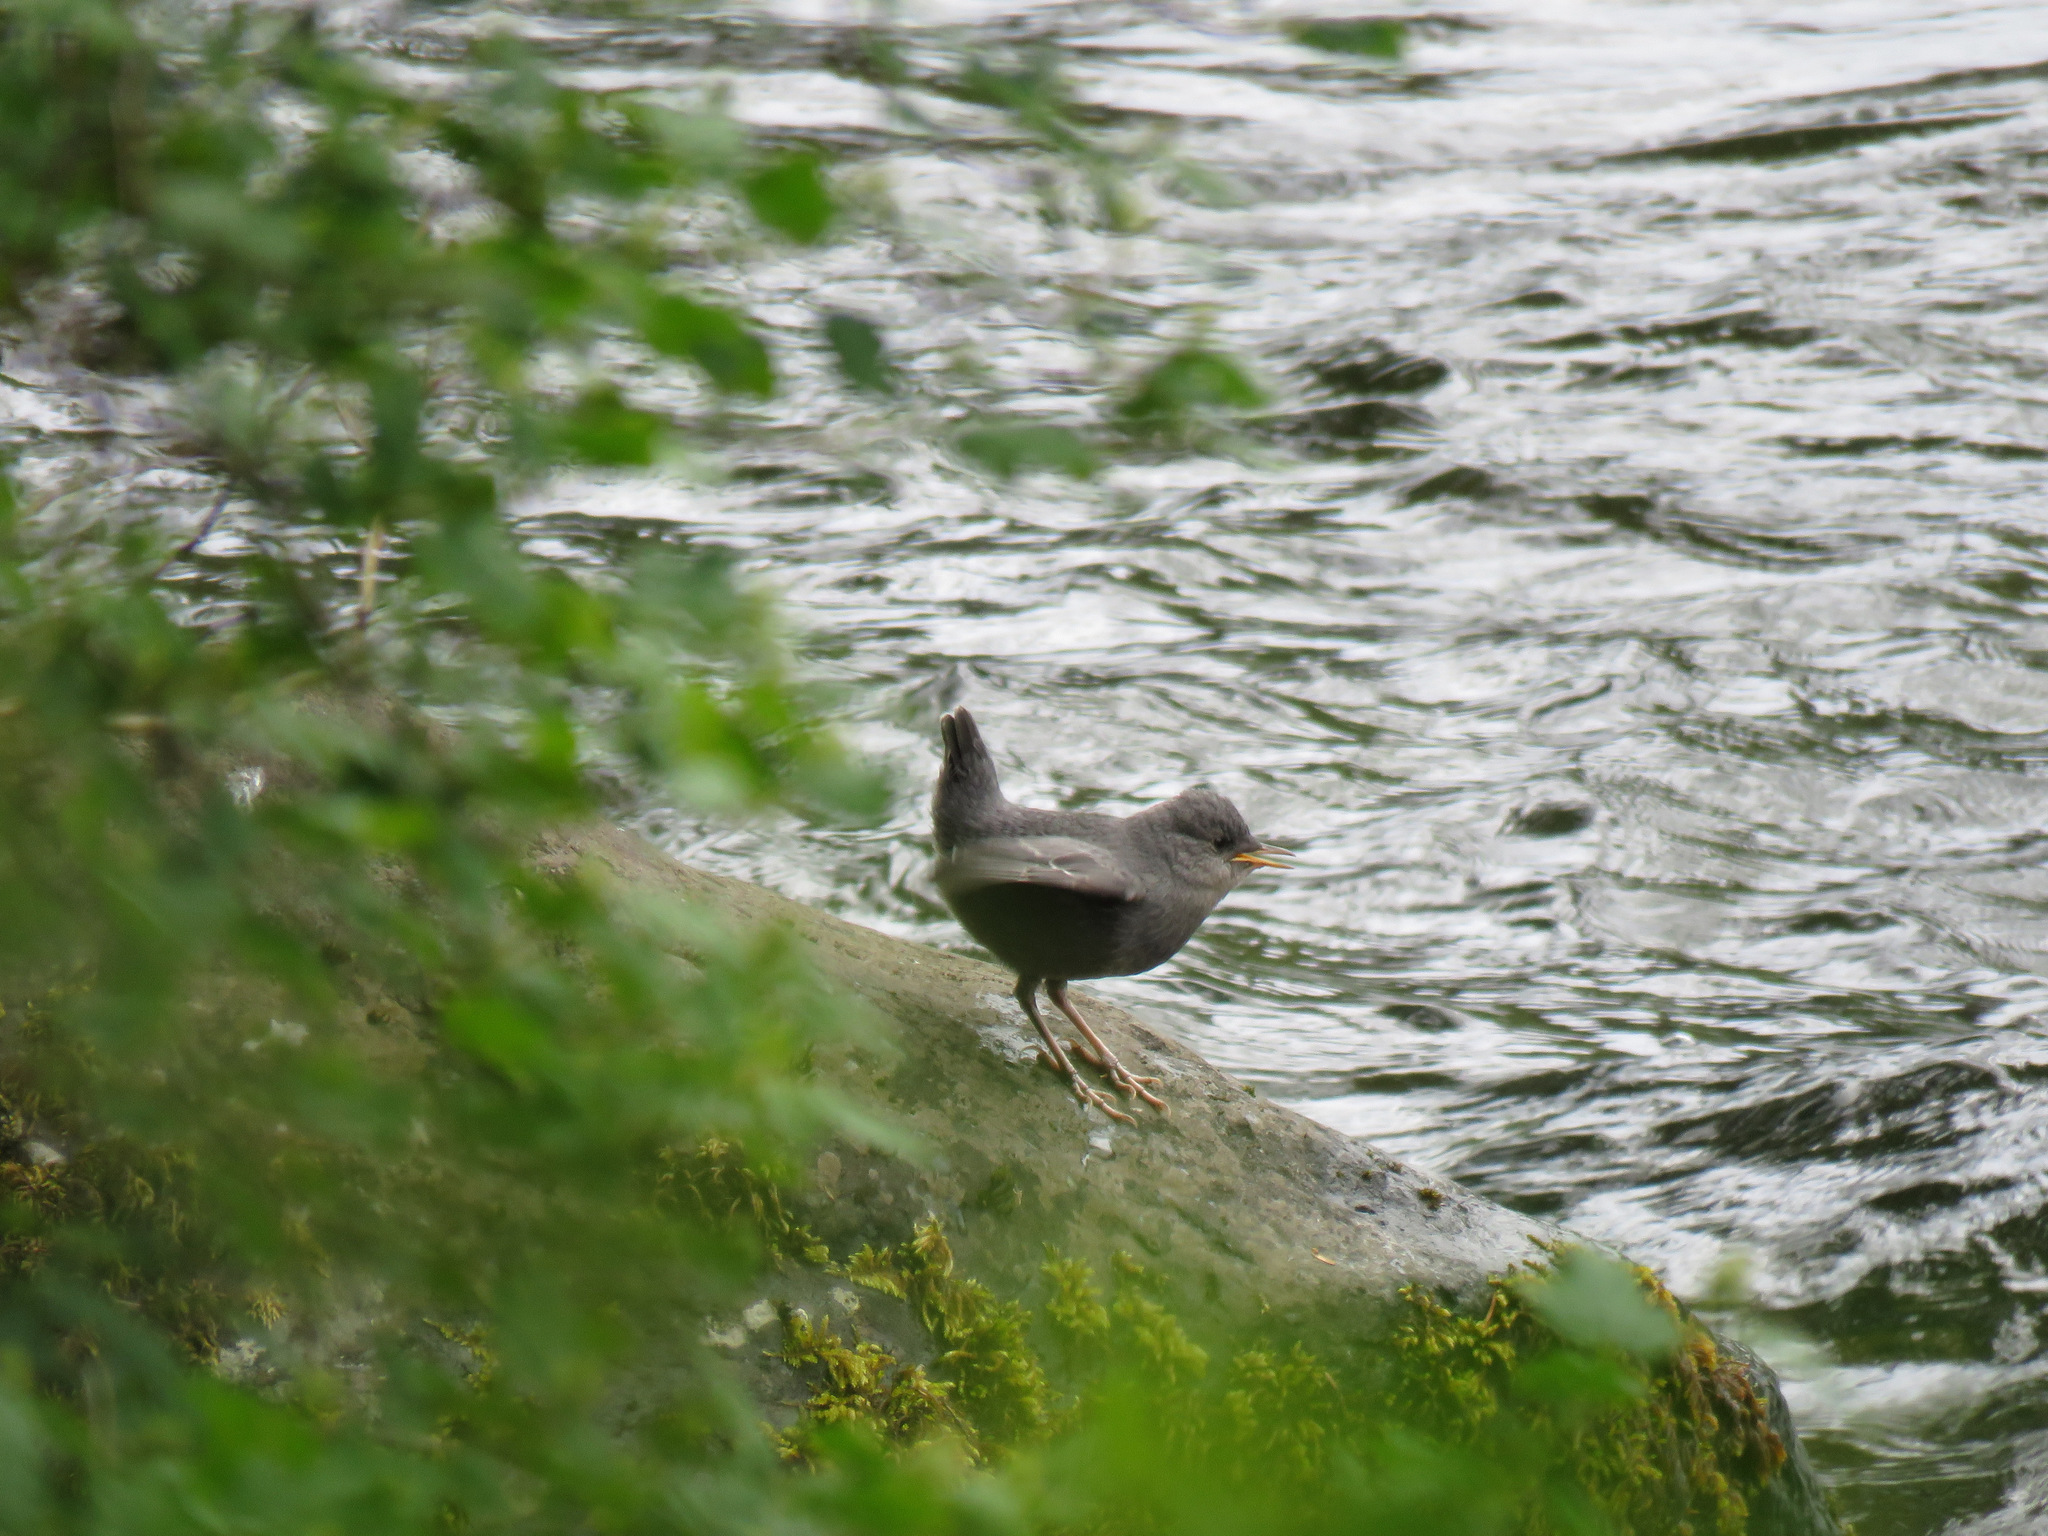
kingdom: Animalia
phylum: Chordata
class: Aves
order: Passeriformes
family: Cinclidae
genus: Cinclus
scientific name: Cinclus mexicanus
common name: American dipper
